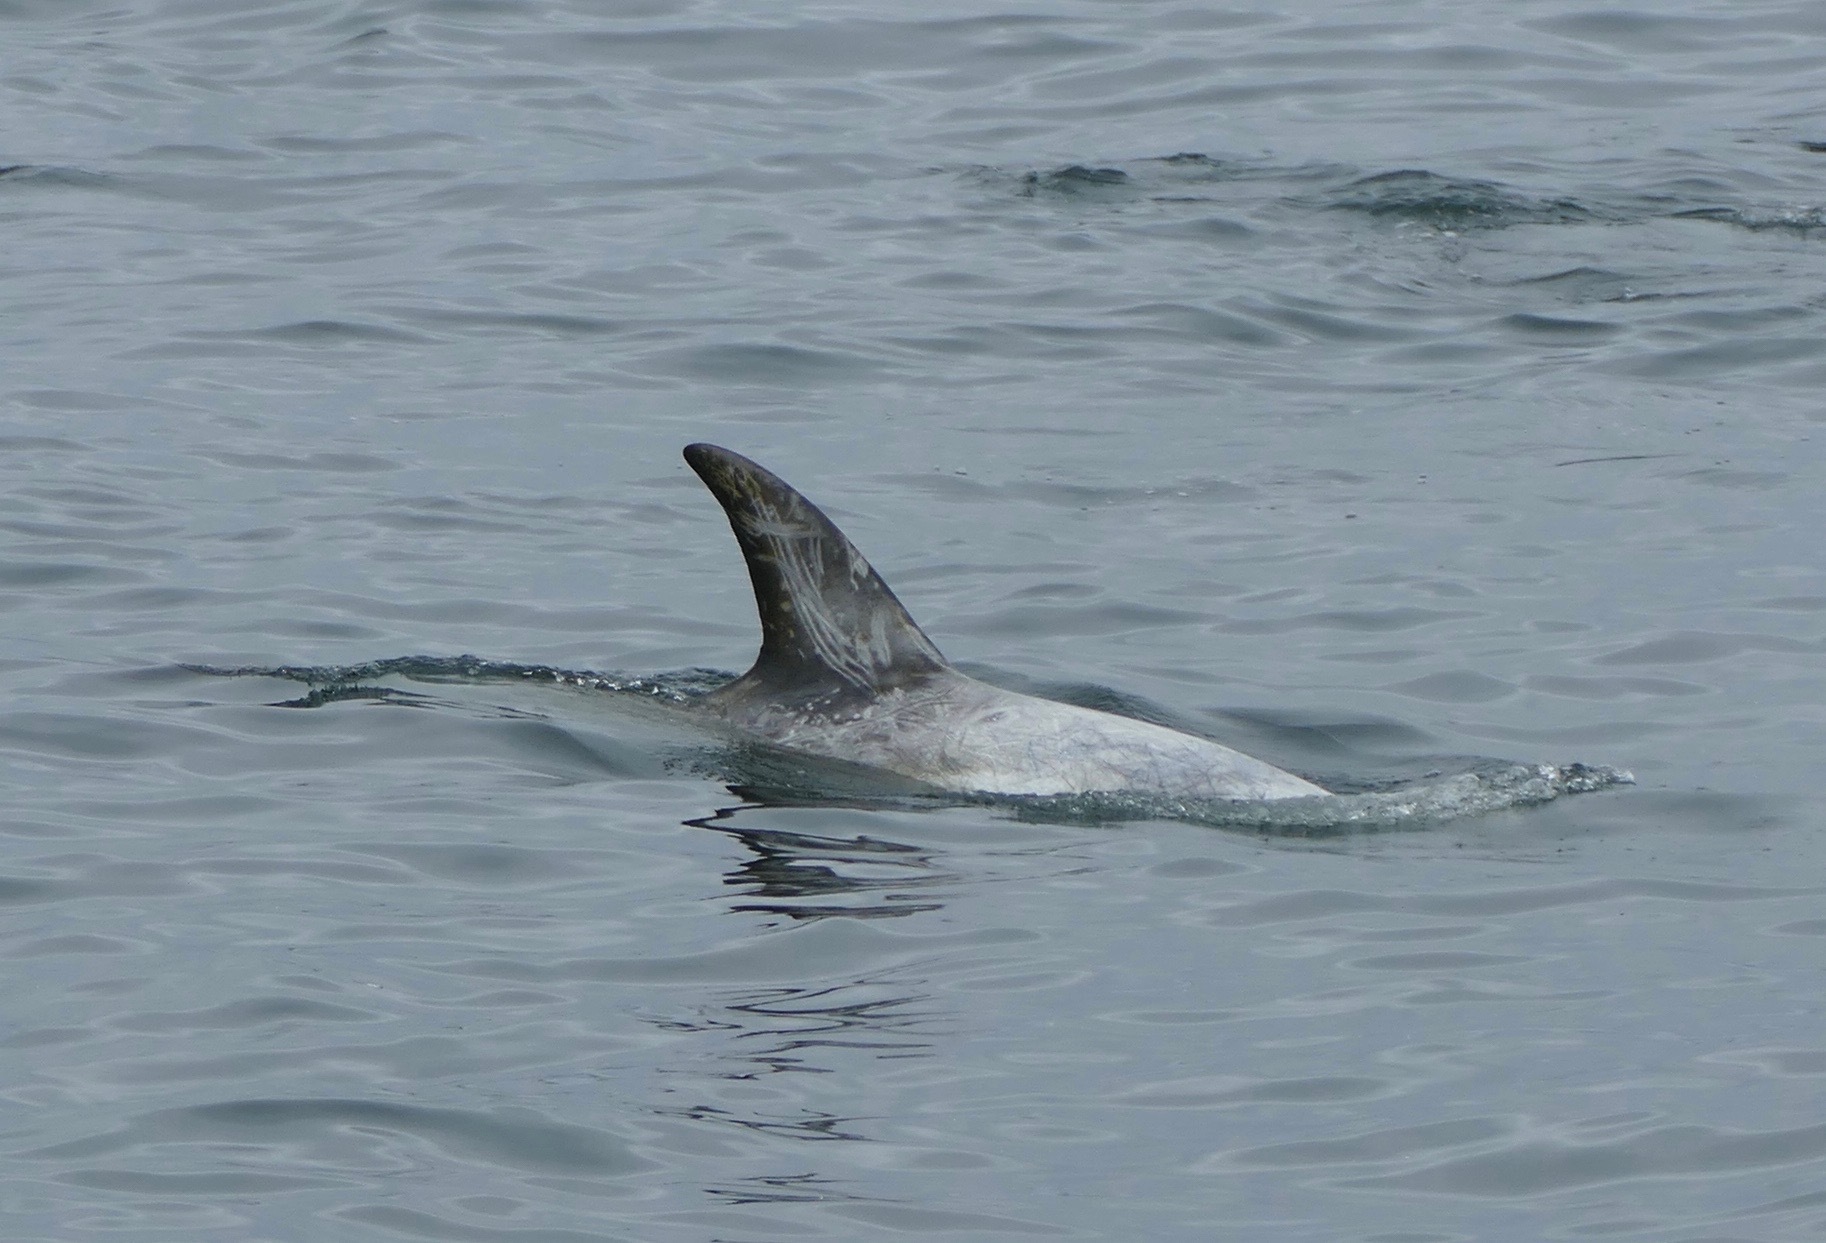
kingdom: Animalia
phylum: Chordata
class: Mammalia
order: Cetacea
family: Delphinidae
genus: Grampus
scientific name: Grampus griseus
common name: Risso's dolphin
